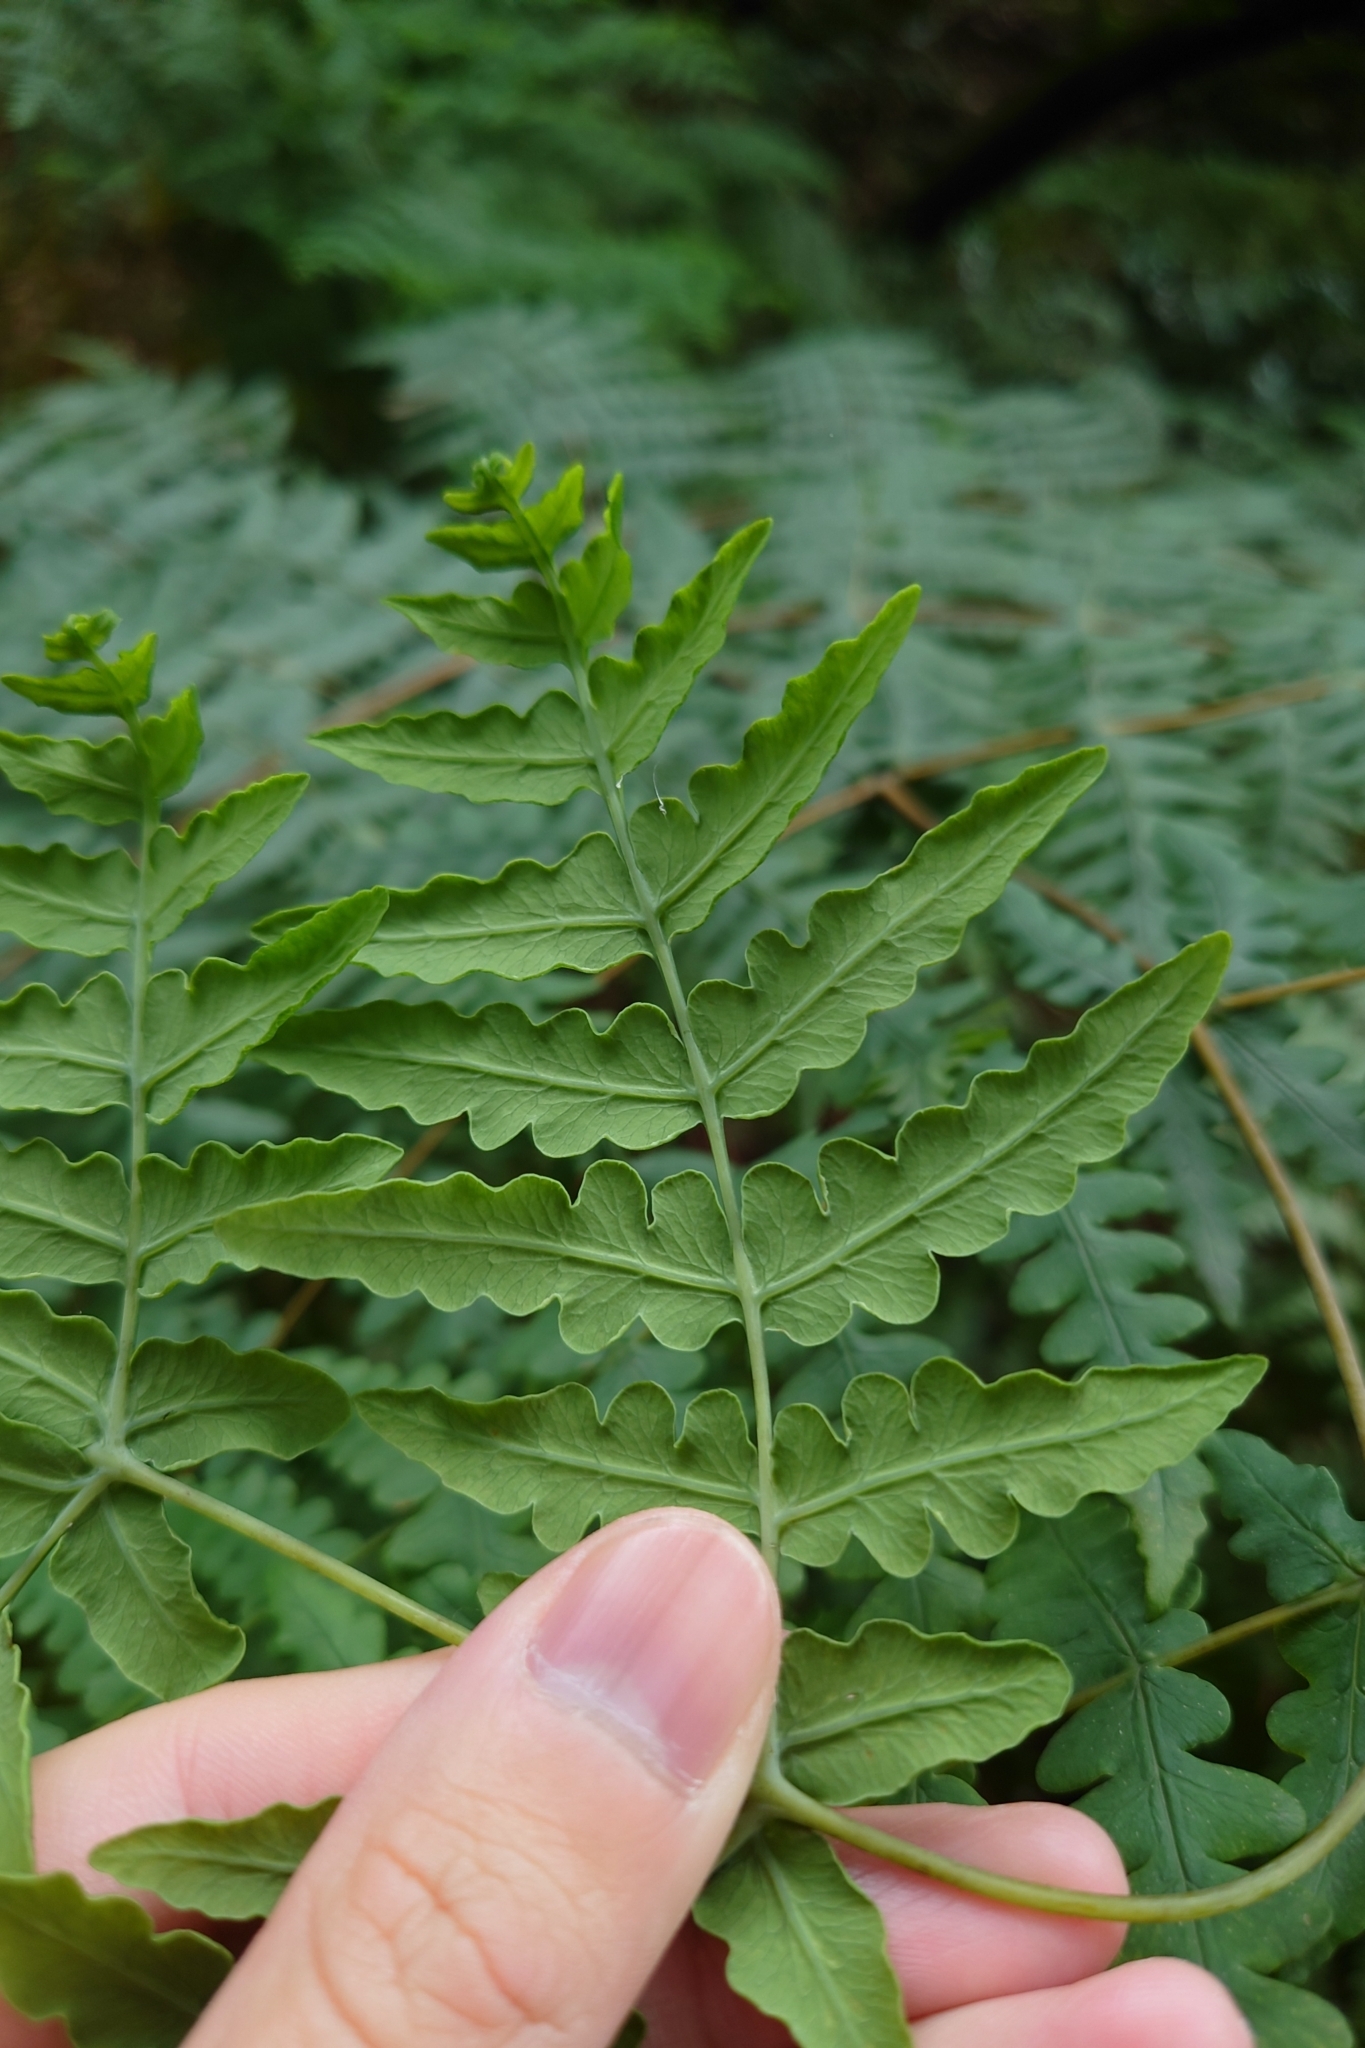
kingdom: Plantae
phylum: Tracheophyta
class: Polypodiopsida
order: Polypodiales
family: Dennstaedtiaceae
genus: Histiopteris
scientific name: Histiopteris incisa
